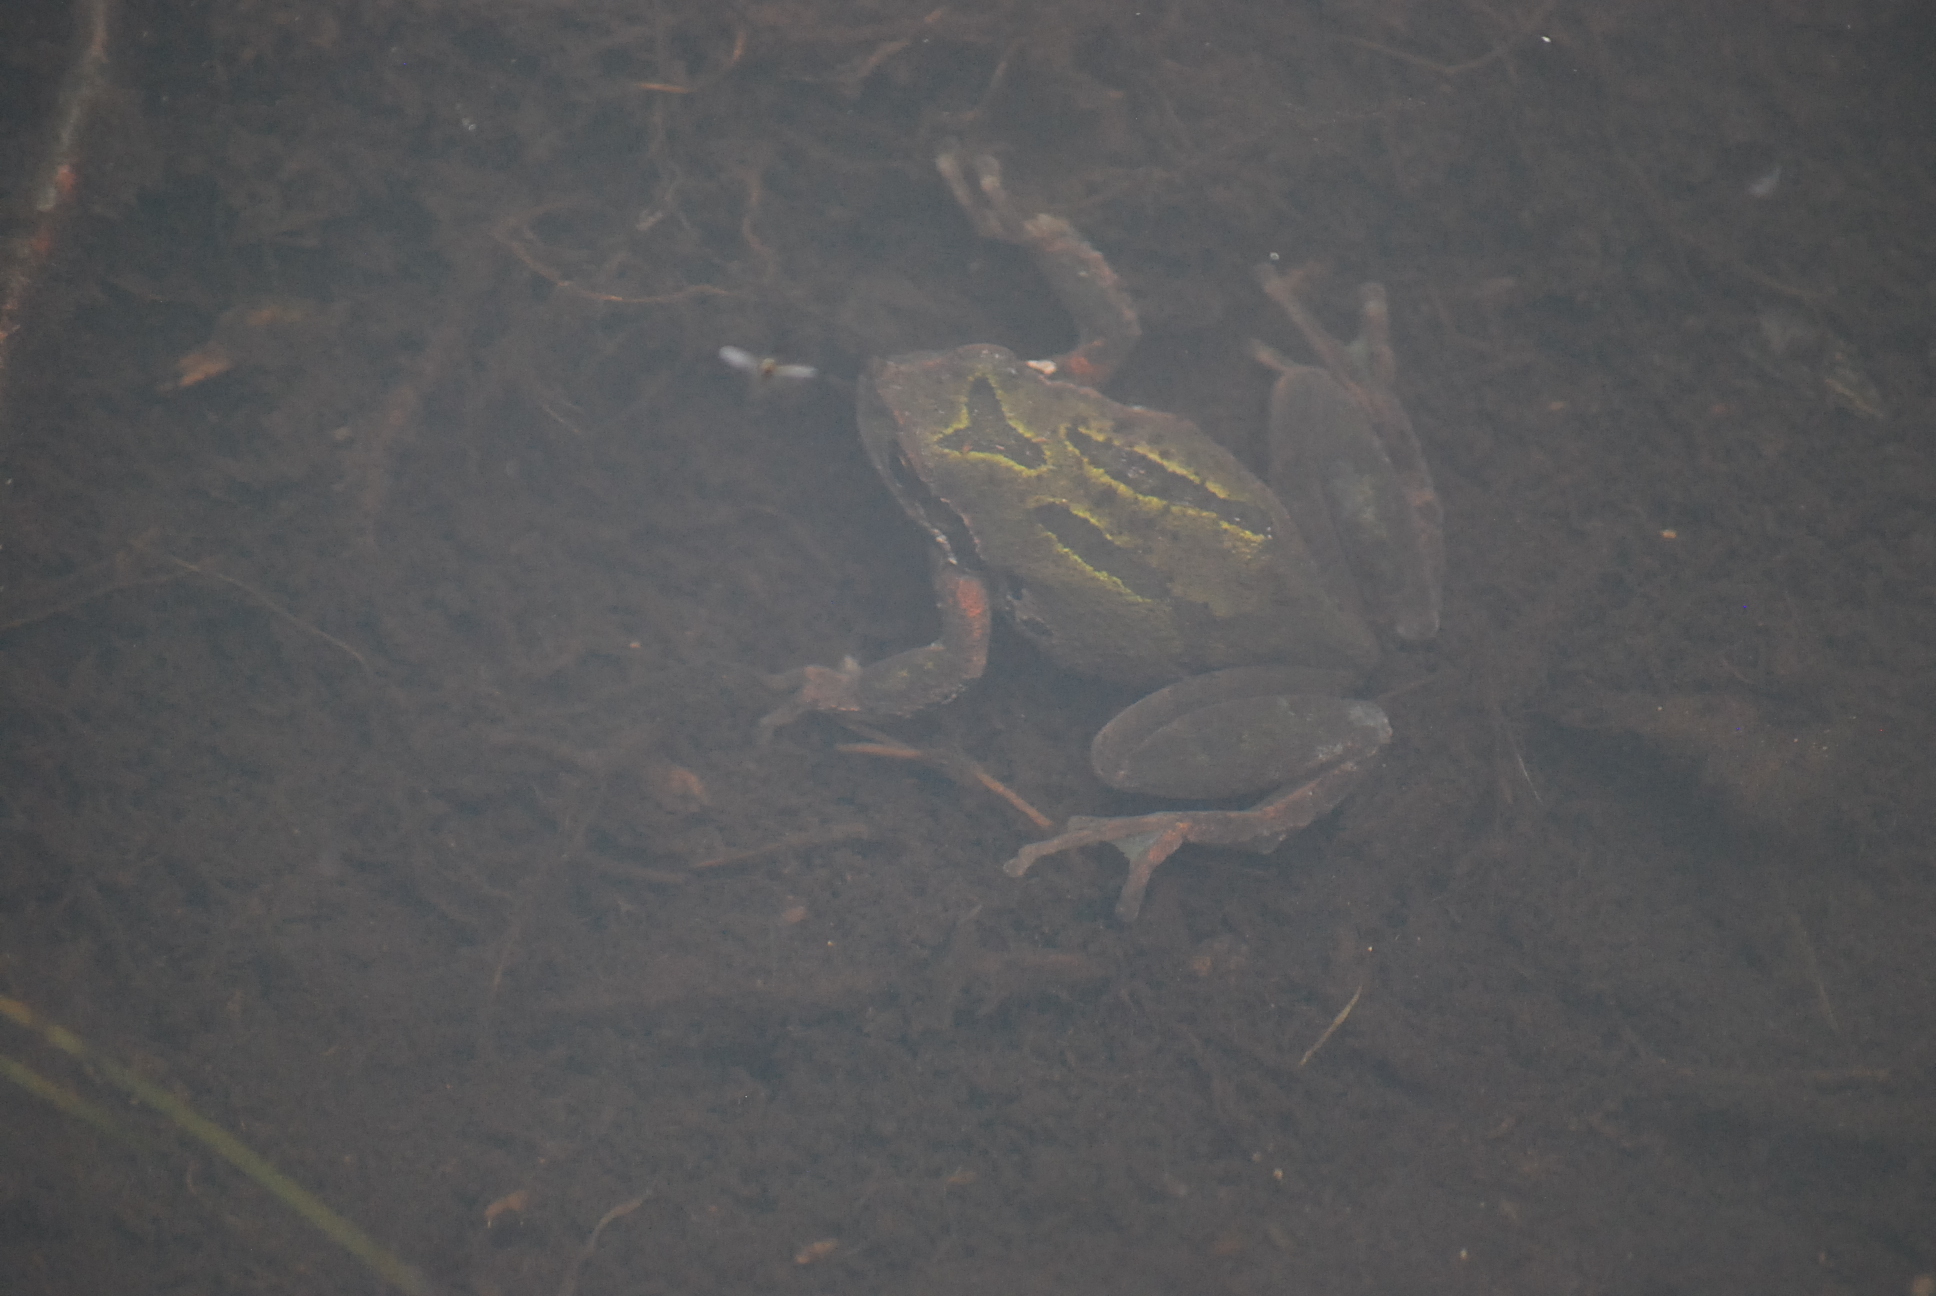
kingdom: Animalia
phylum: Chordata
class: Amphibia
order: Anura
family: Hylidae
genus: Pseudacris
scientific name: Pseudacris regilla
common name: Pacific chorus frog
